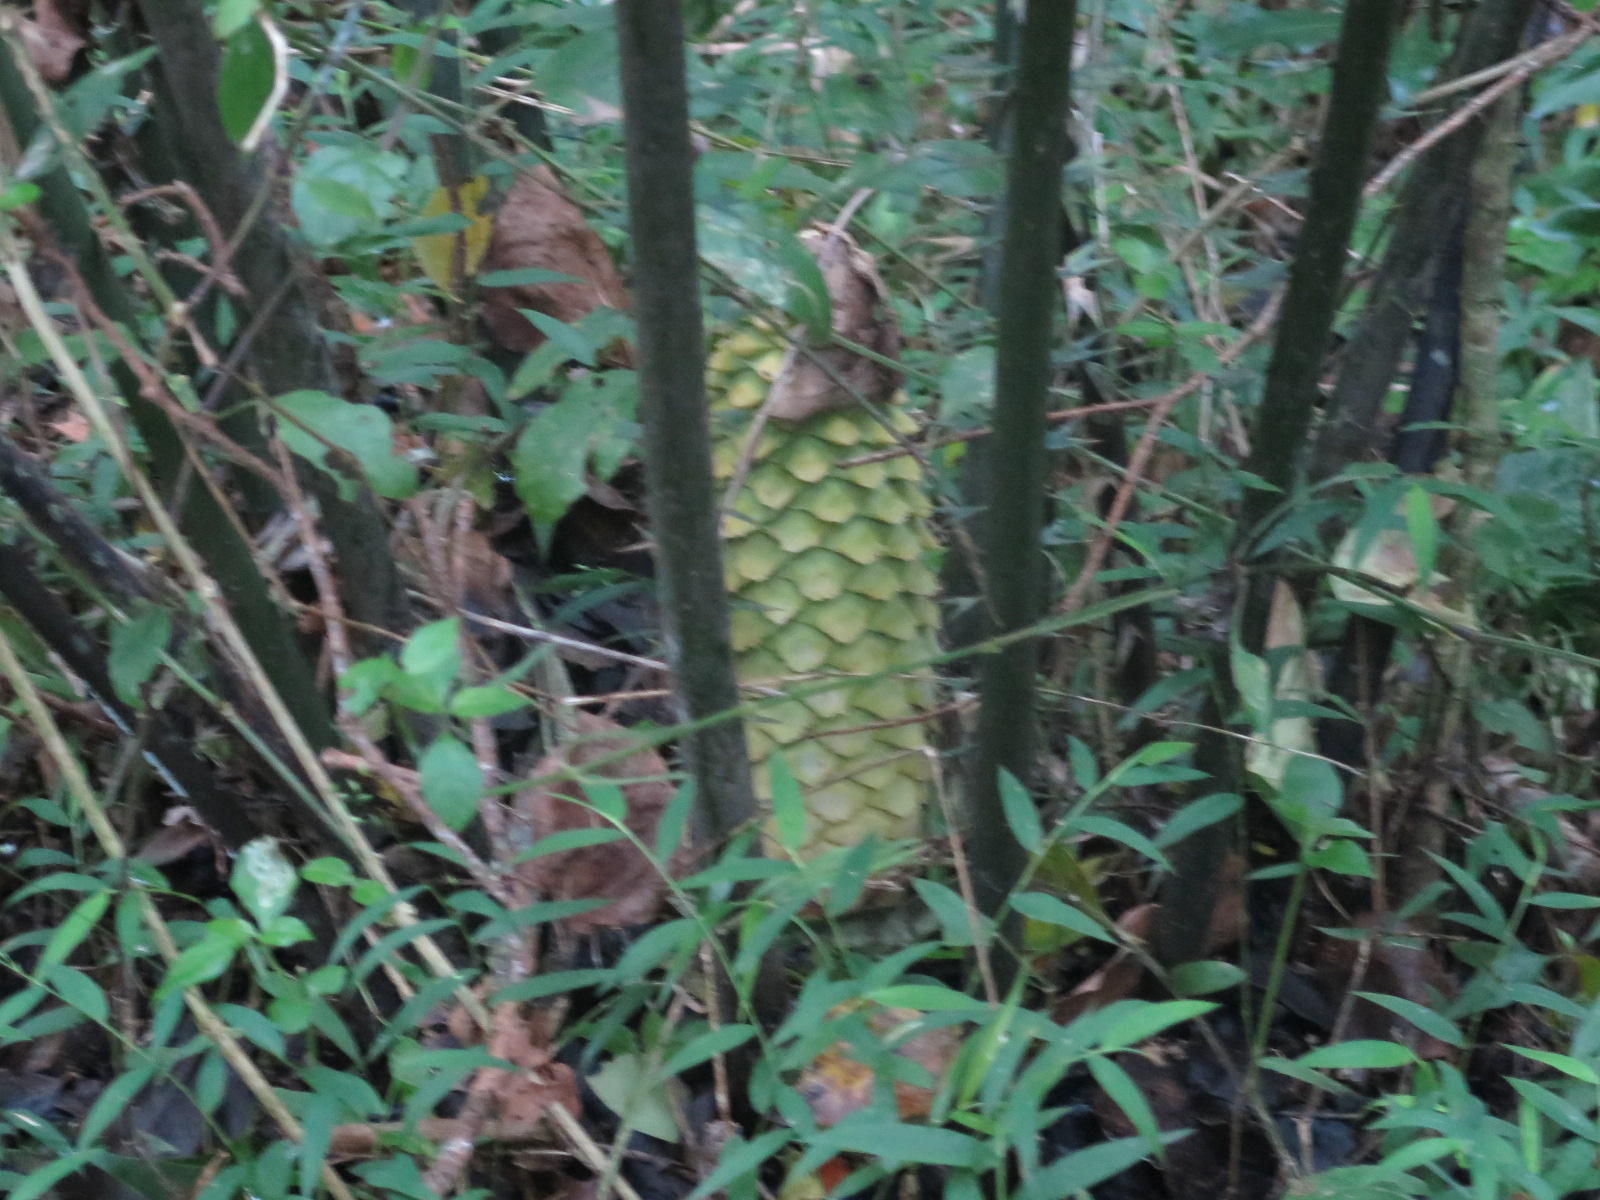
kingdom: Plantae
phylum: Tracheophyta
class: Cycadopsida
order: Cycadales
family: Zamiaceae
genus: Encephalartos
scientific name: Encephalartos villosus
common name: Poor man's cycad
